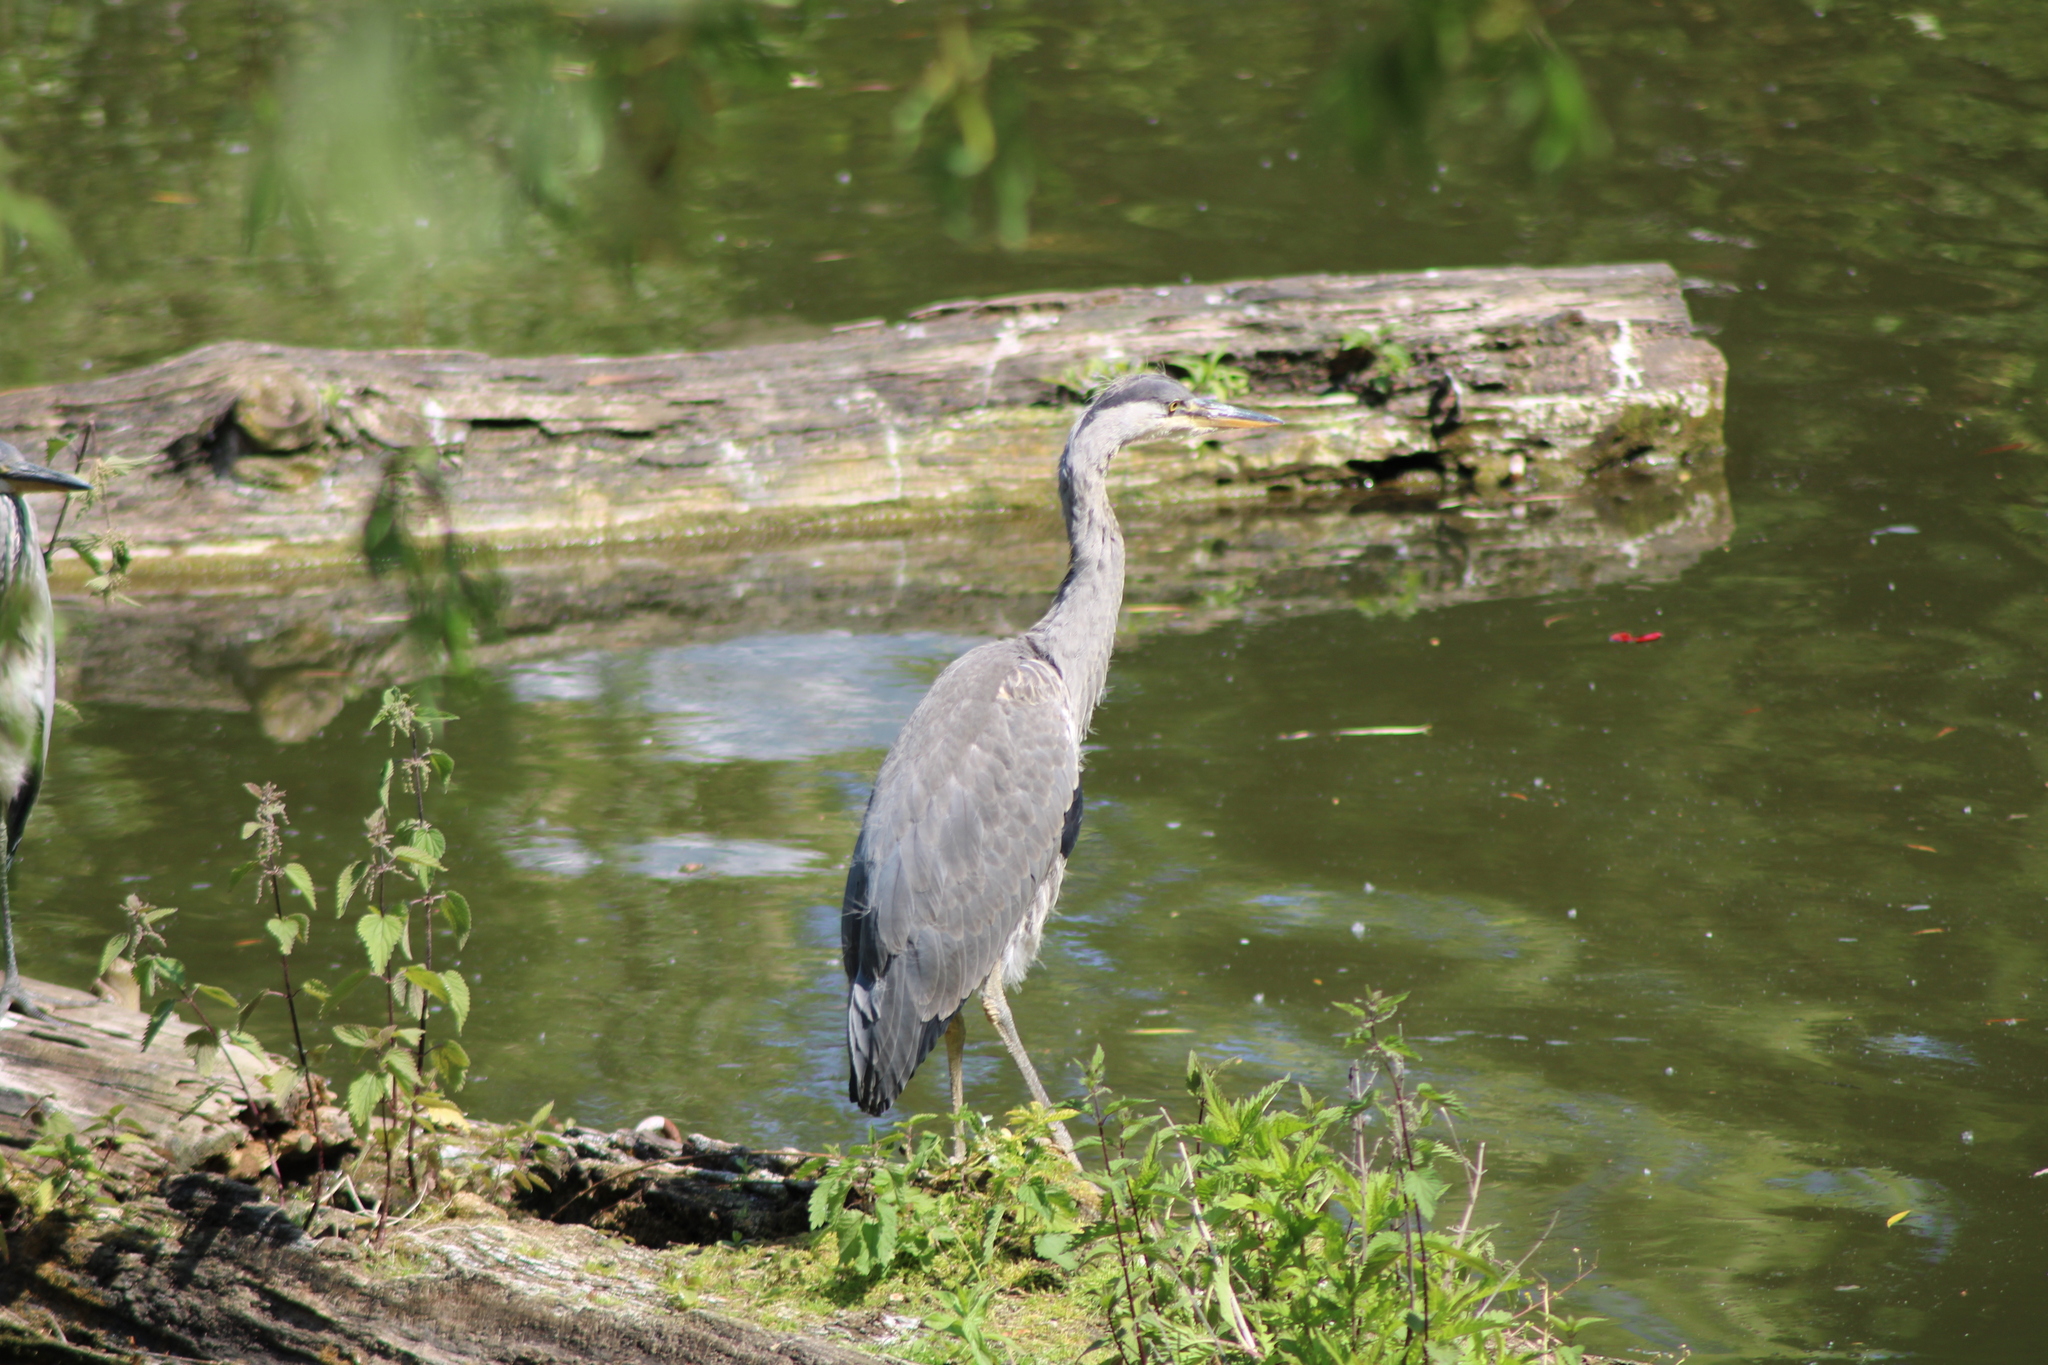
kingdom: Animalia
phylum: Chordata
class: Aves
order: Pelecaniformes
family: Ardeidae
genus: Ardea
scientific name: Ardea cinerea
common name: Grey heron
